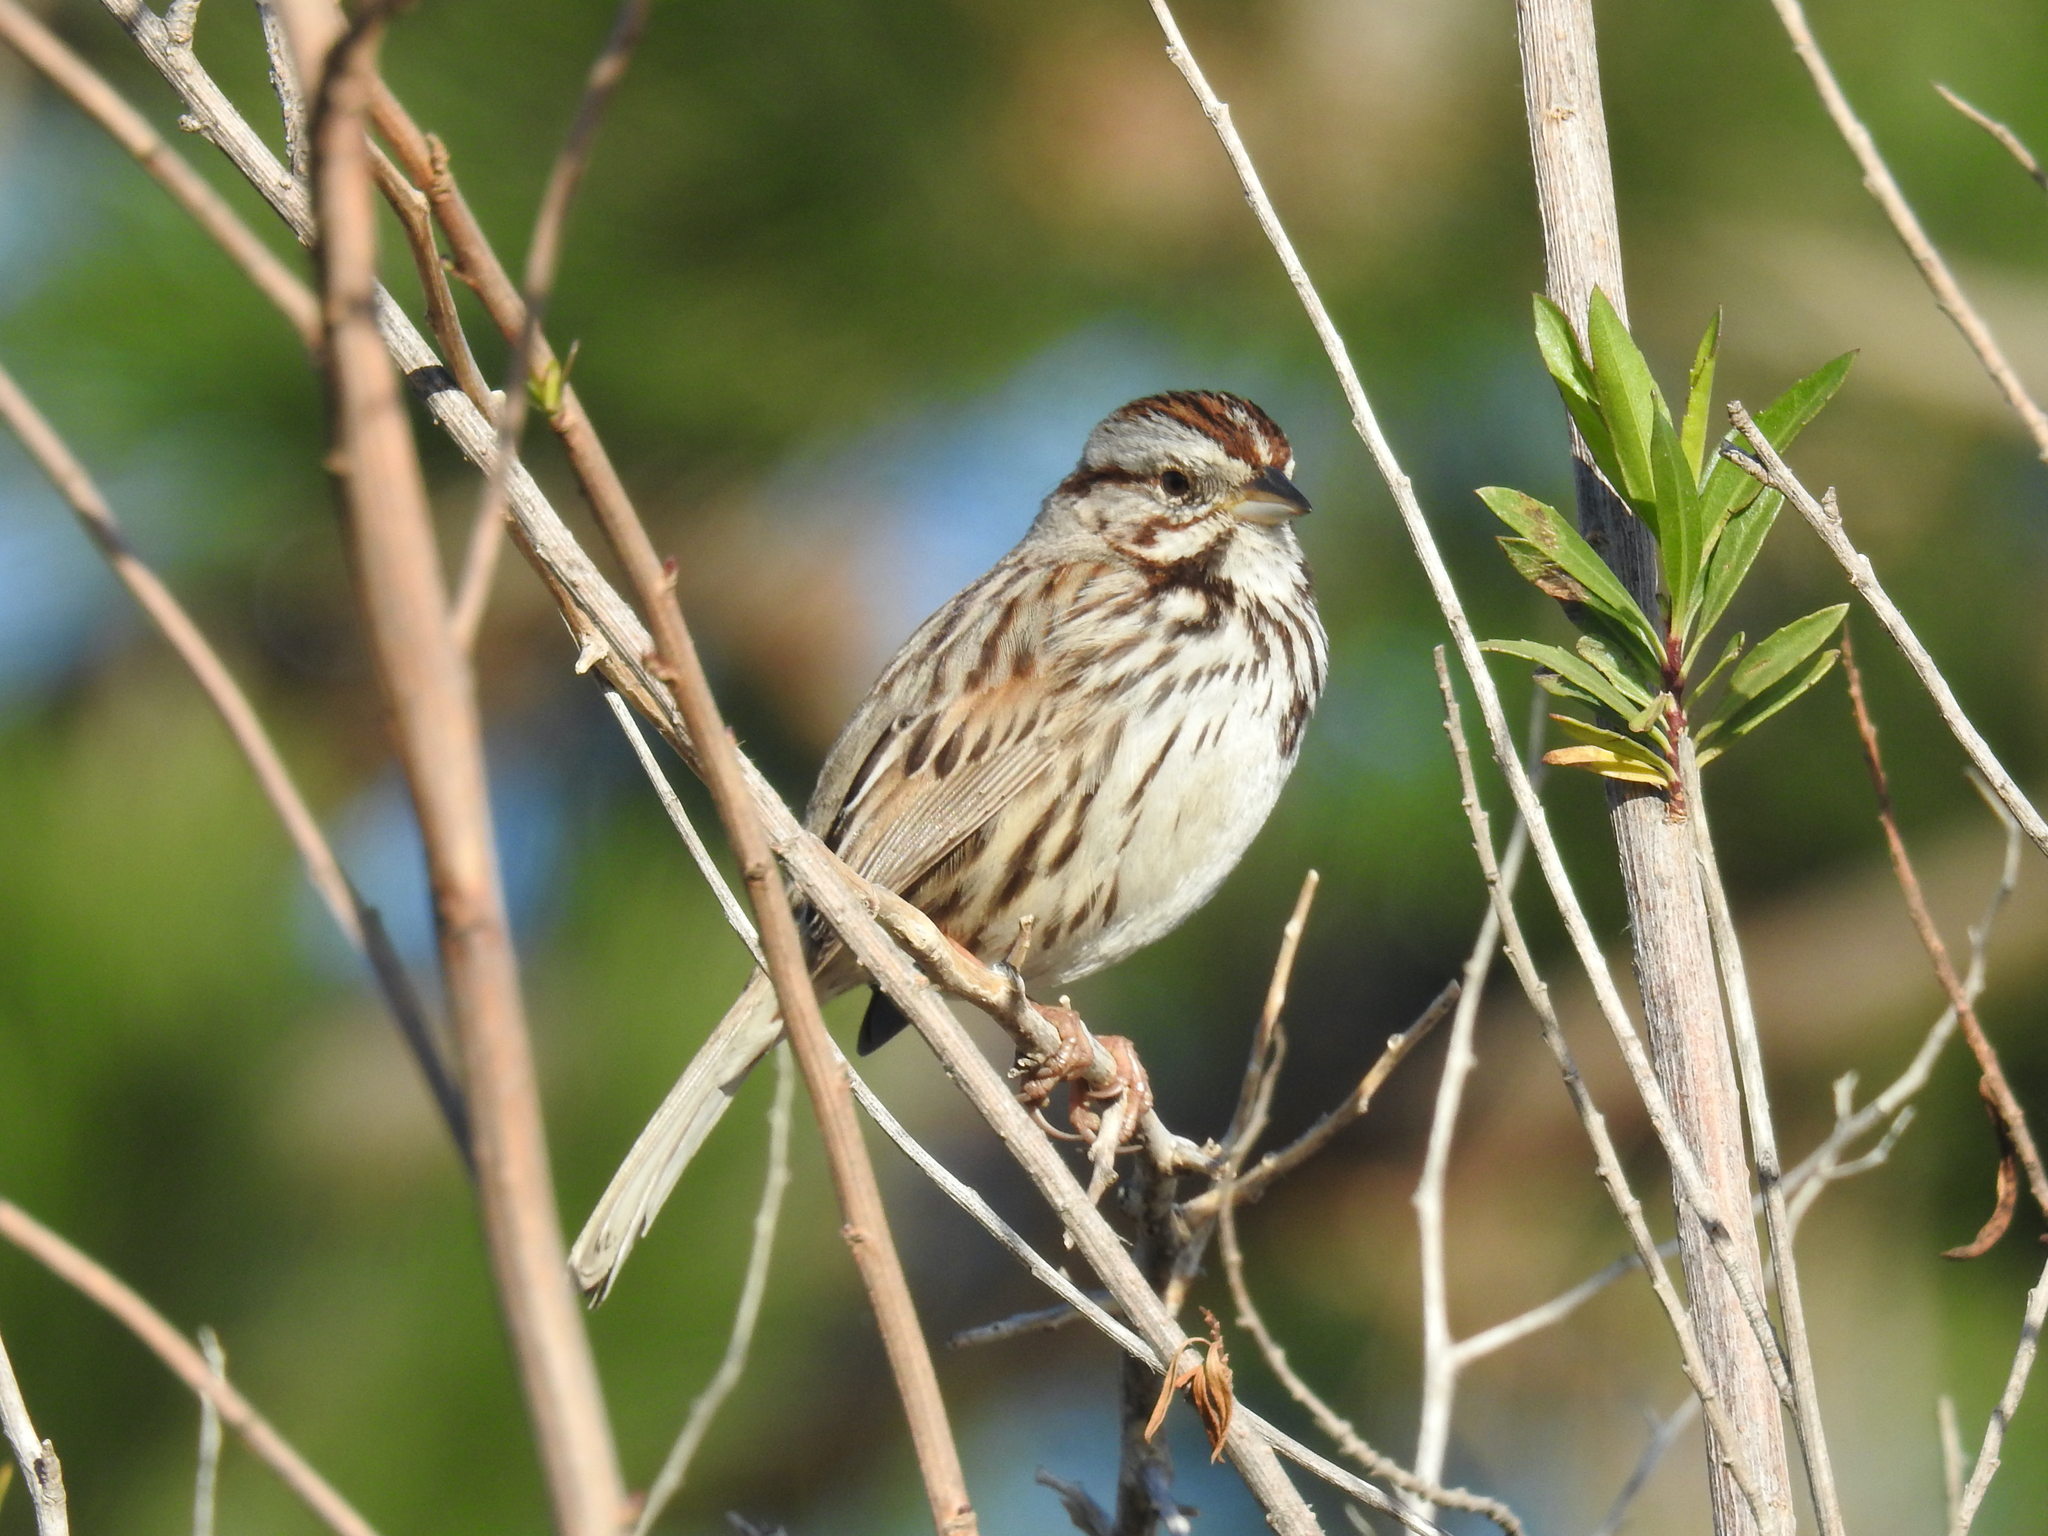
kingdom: Animalia
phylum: Chordata
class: Aves
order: Passeriformes
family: Passerellidae
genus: Melospiza
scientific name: Melospiza melodia
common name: Song sparrow
